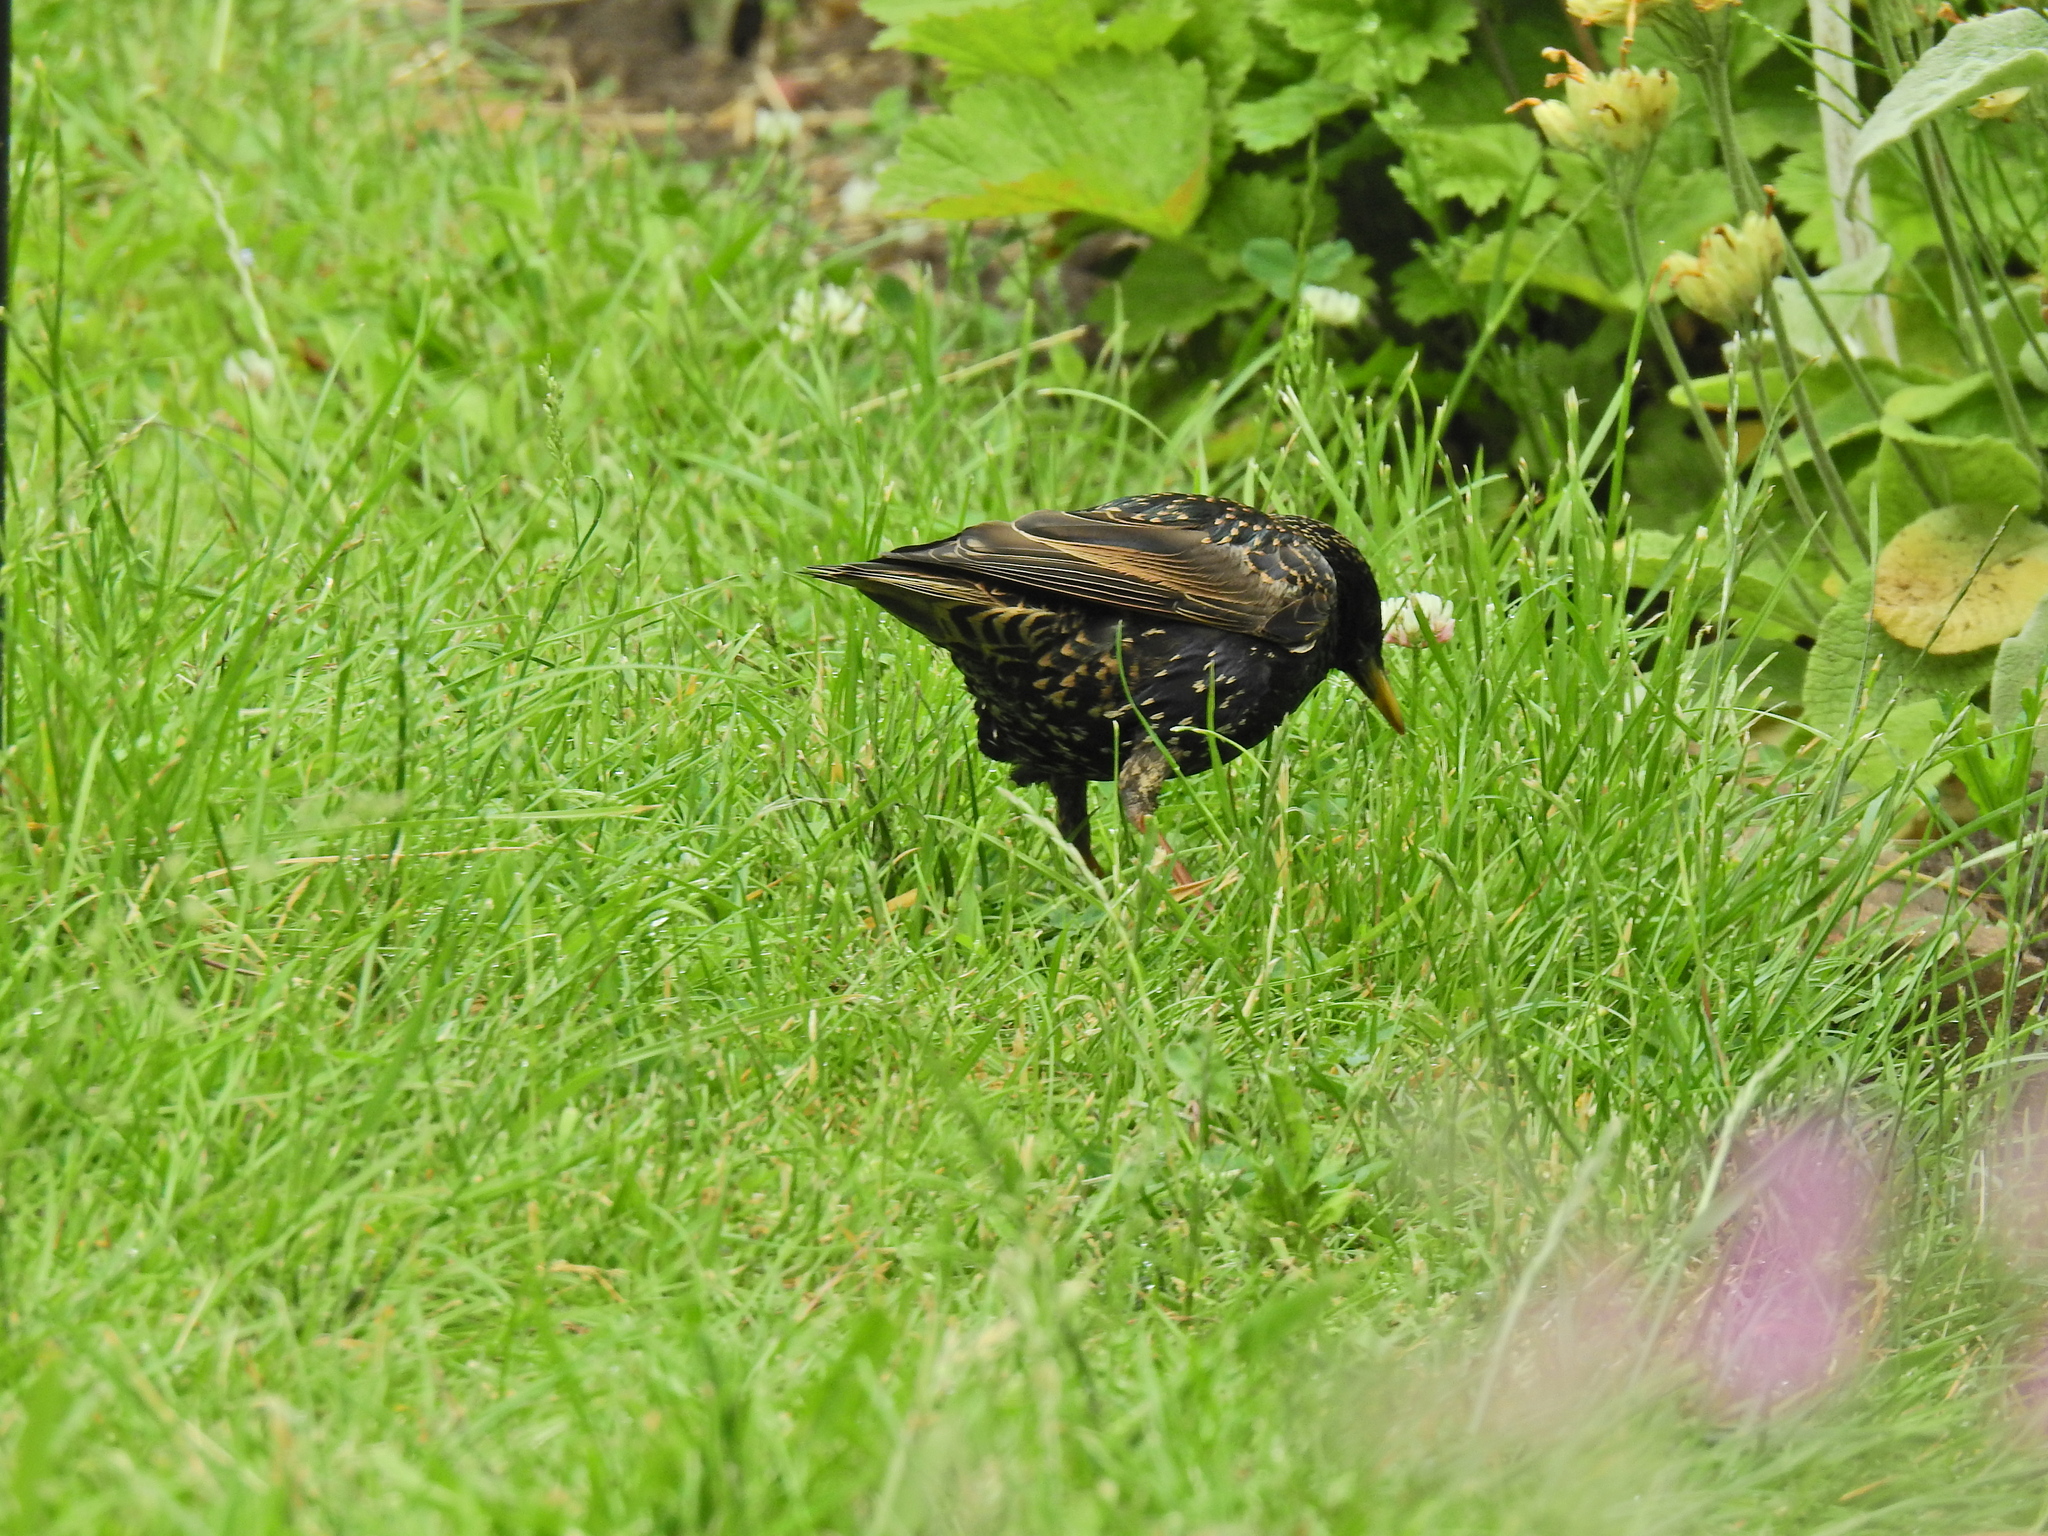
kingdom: Animalia
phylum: Chordata
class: Aves
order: Passeriformes
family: Sturnidae
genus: Sturnus
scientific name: Sturnus vulgaris
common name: Common starling
